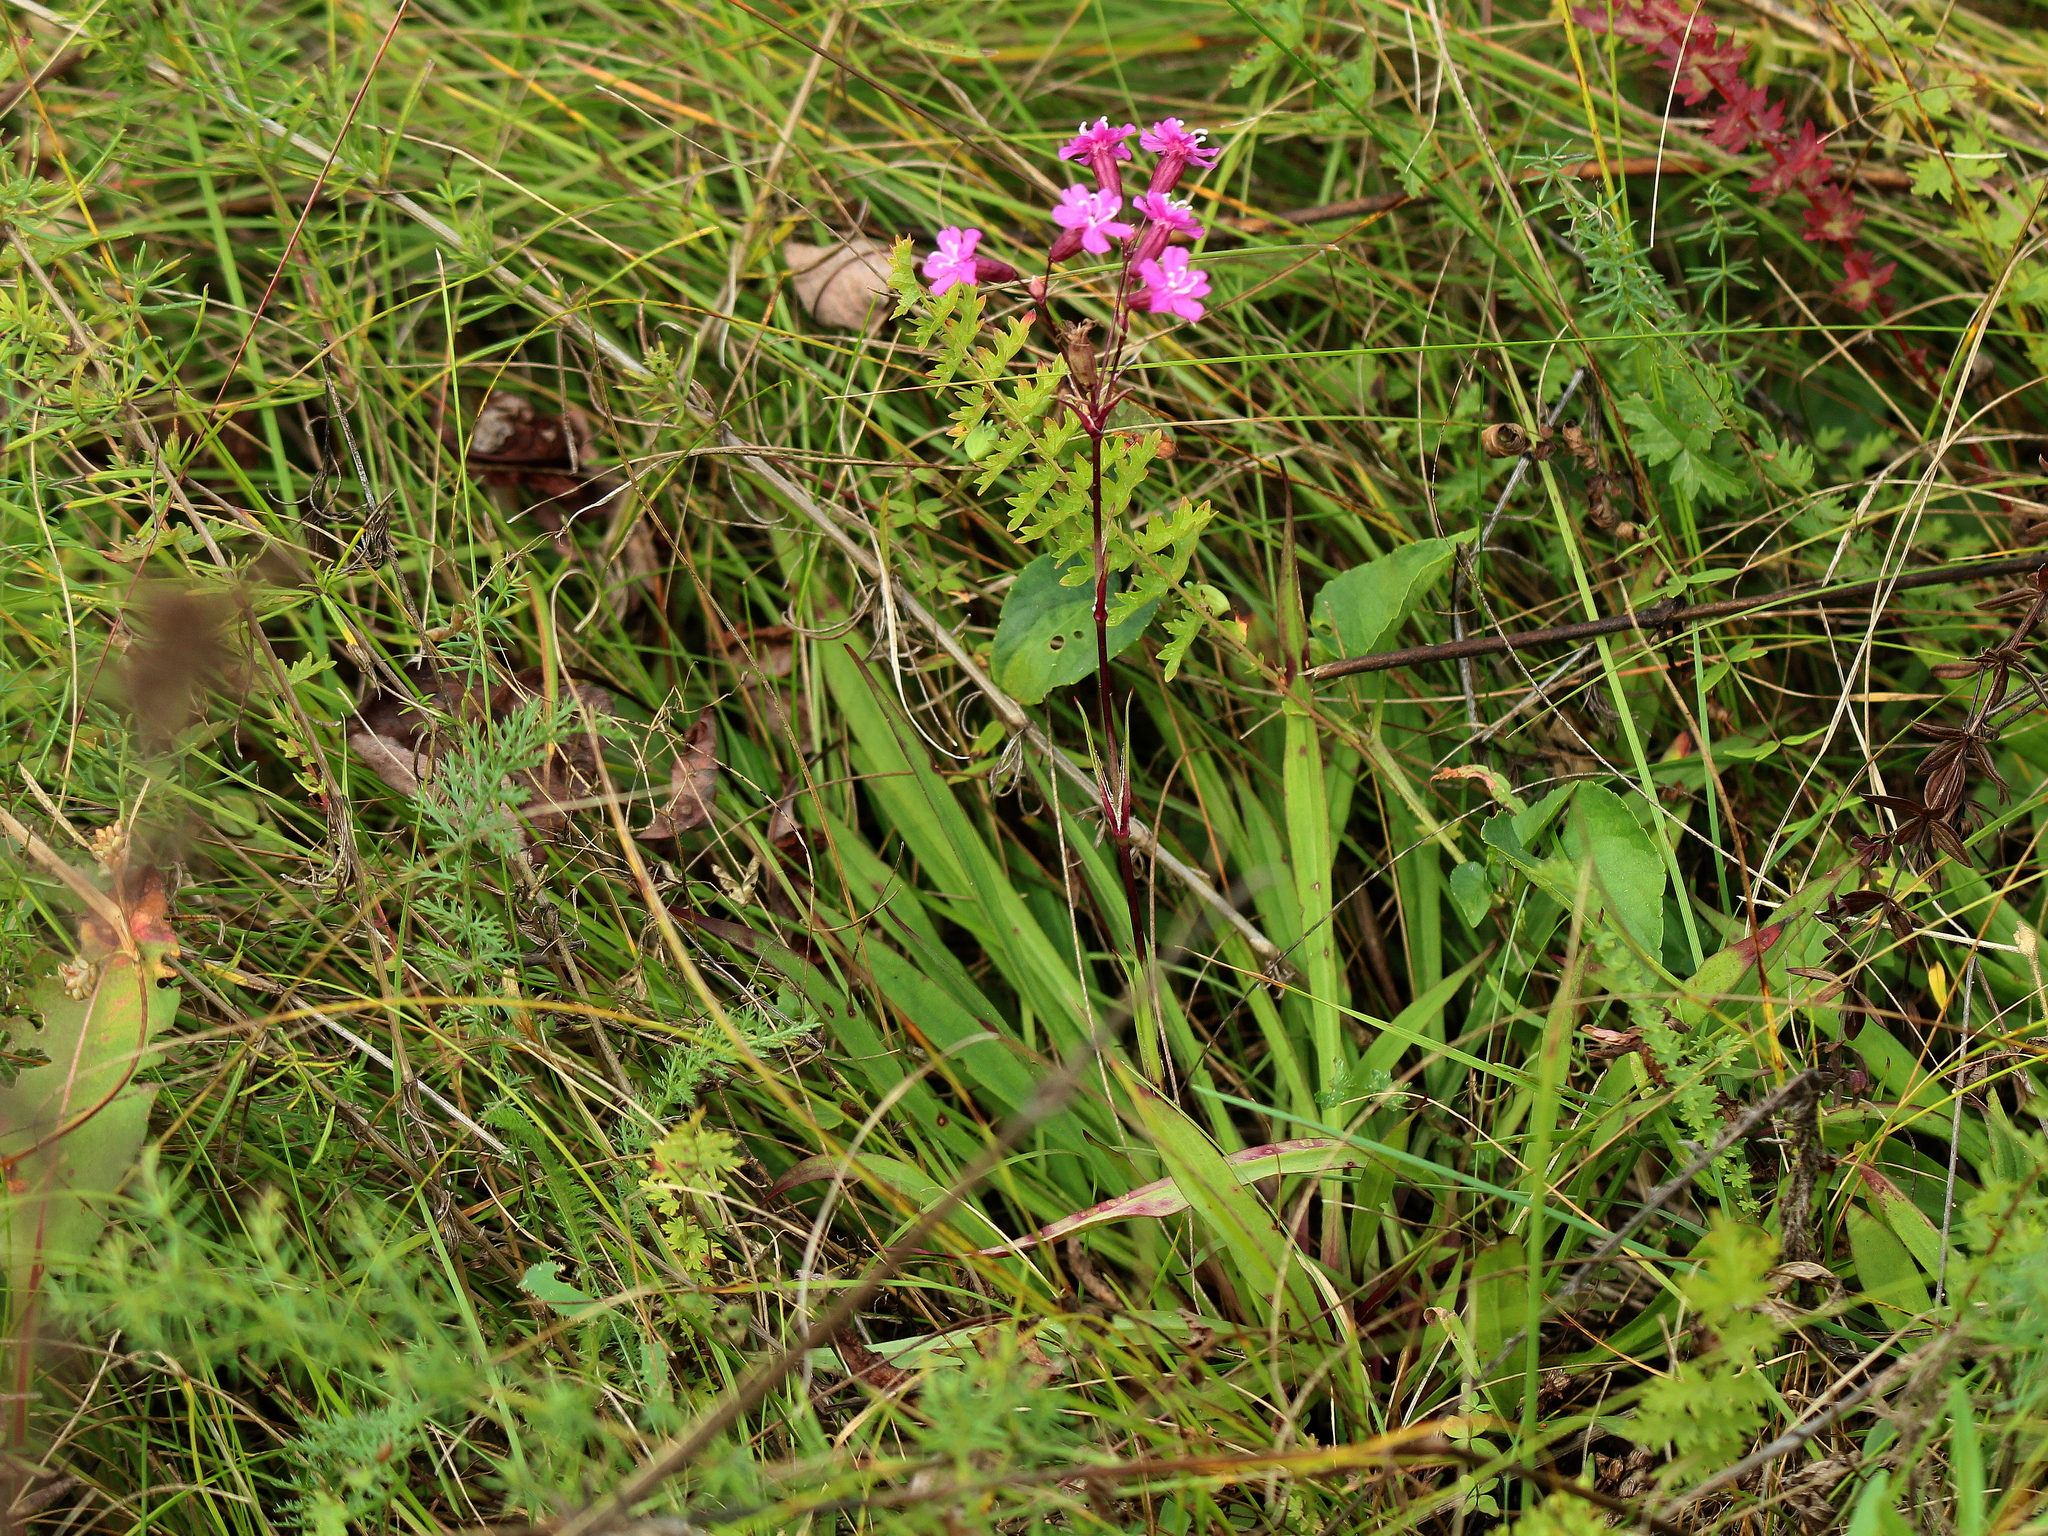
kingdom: Plantae
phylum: Tracheophyta
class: Magnoliopsida
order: Caryophyllales
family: Caryophyllaceae
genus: Viscaria
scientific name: Viscaria vulgaris
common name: Clammy campion
